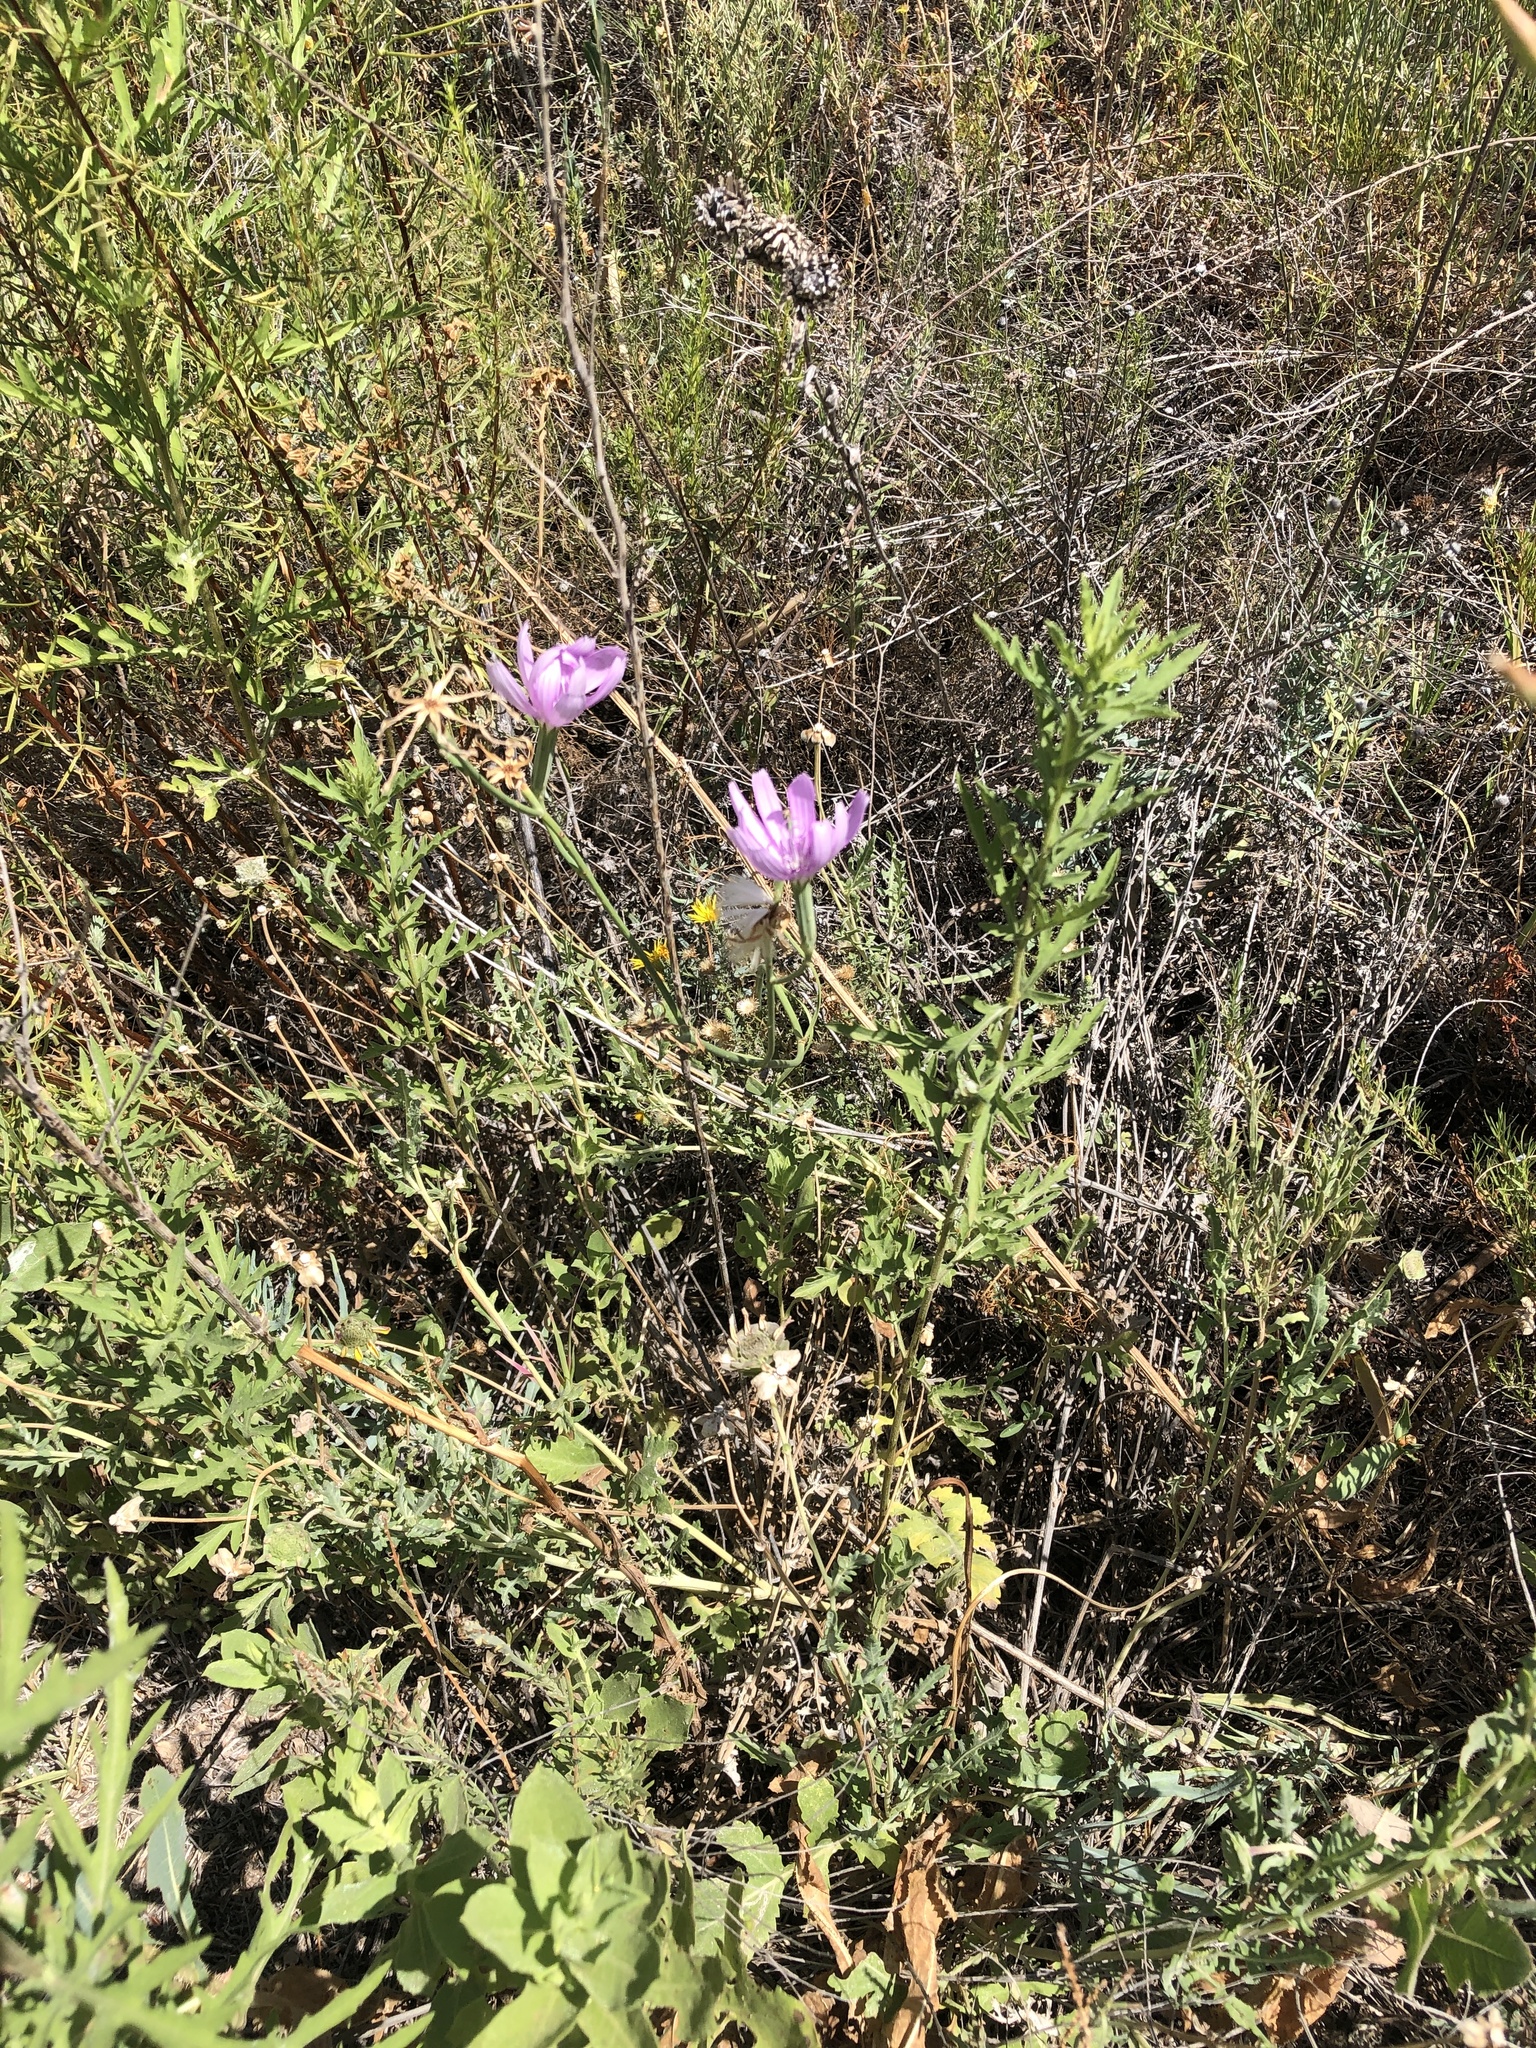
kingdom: Plantae
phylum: Tracheophyta
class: Magnoliopsida
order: Asterales
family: Asteraceae
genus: Lygodesmia
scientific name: Lygodesmia texana
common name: Texas skeleton-plant
